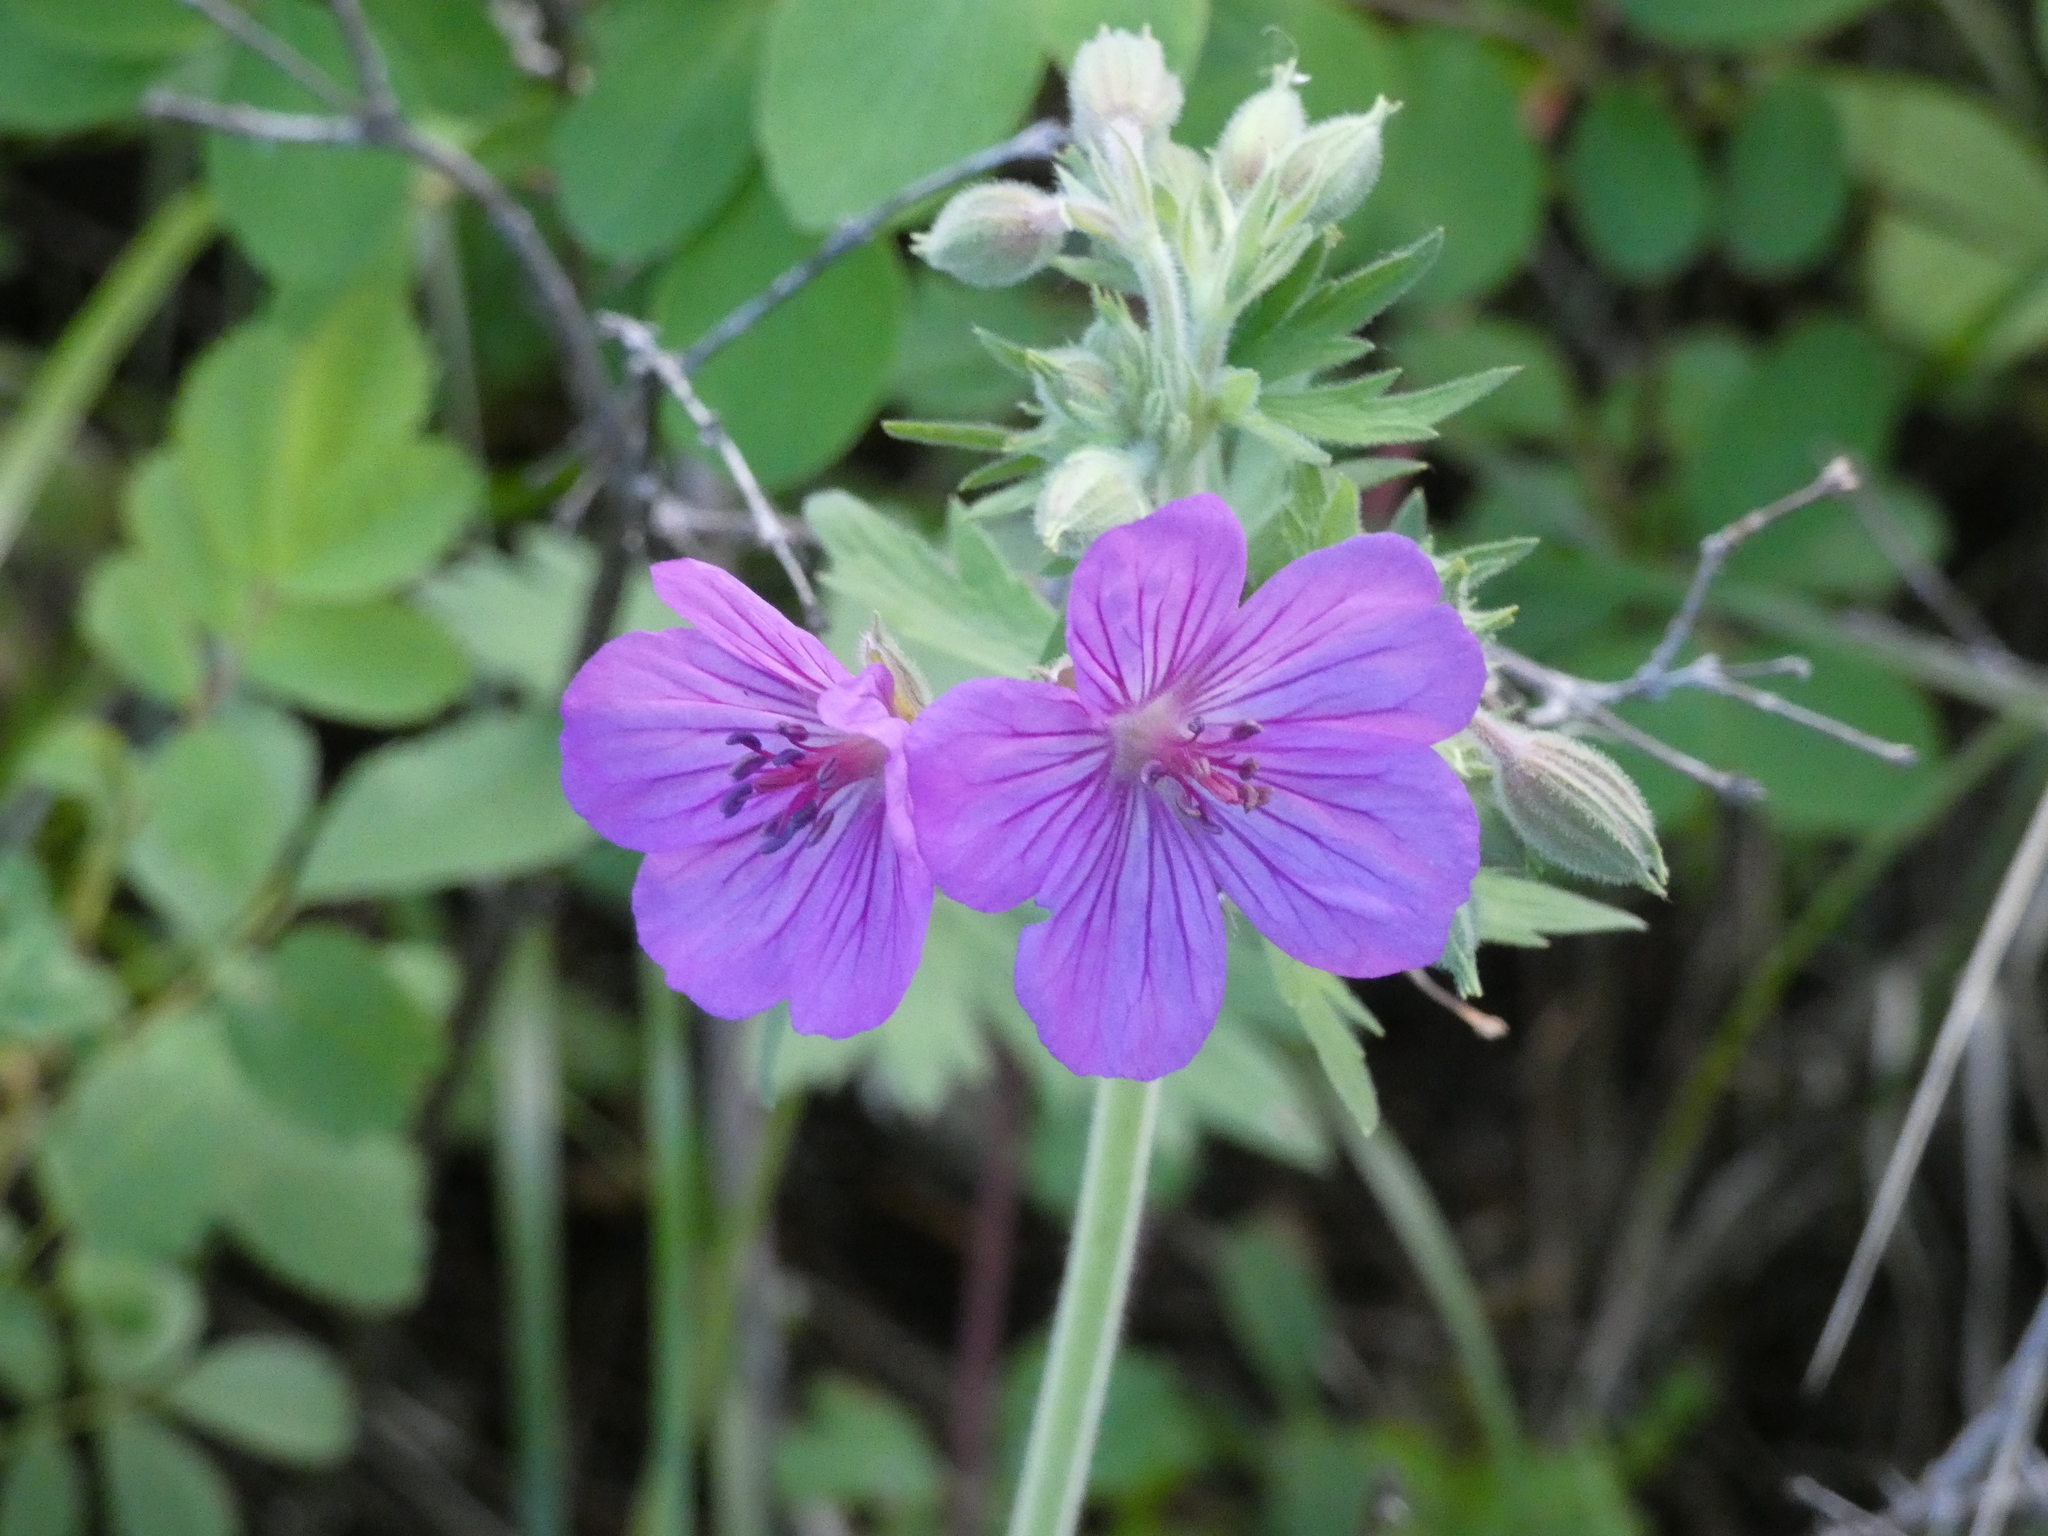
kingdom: Plantae
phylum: Tracheophyta
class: Magnoliopsida
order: Geraniales
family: Geraniaceae
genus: Geranium
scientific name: Geranium viscosissimum
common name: Purple geranium
